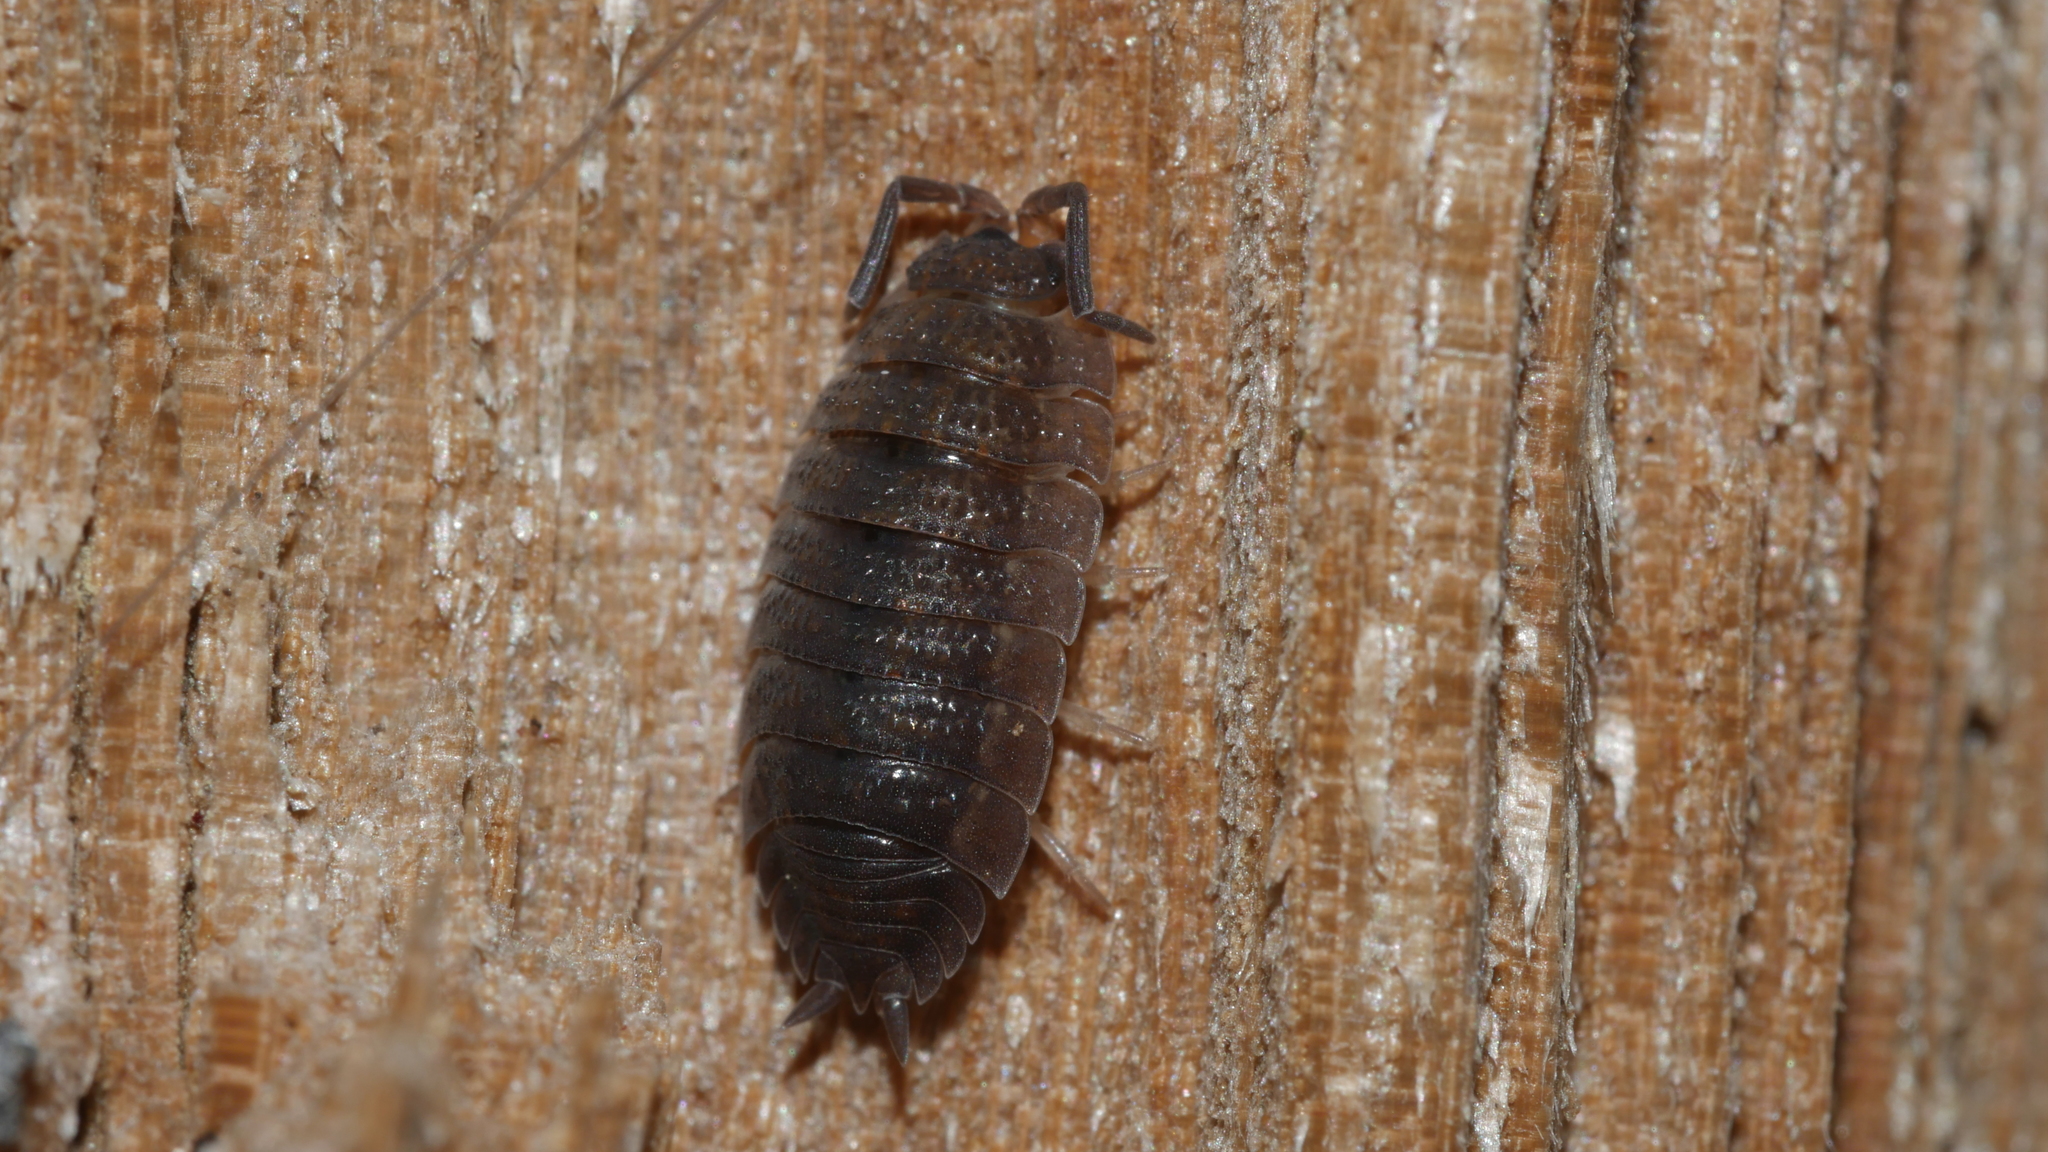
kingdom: Animalia
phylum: Arthropoda
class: Malacostraca
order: Isopoda
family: Porcellionidae
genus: Porcellio
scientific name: Porcellio scaber
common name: Common rough woodlouse
